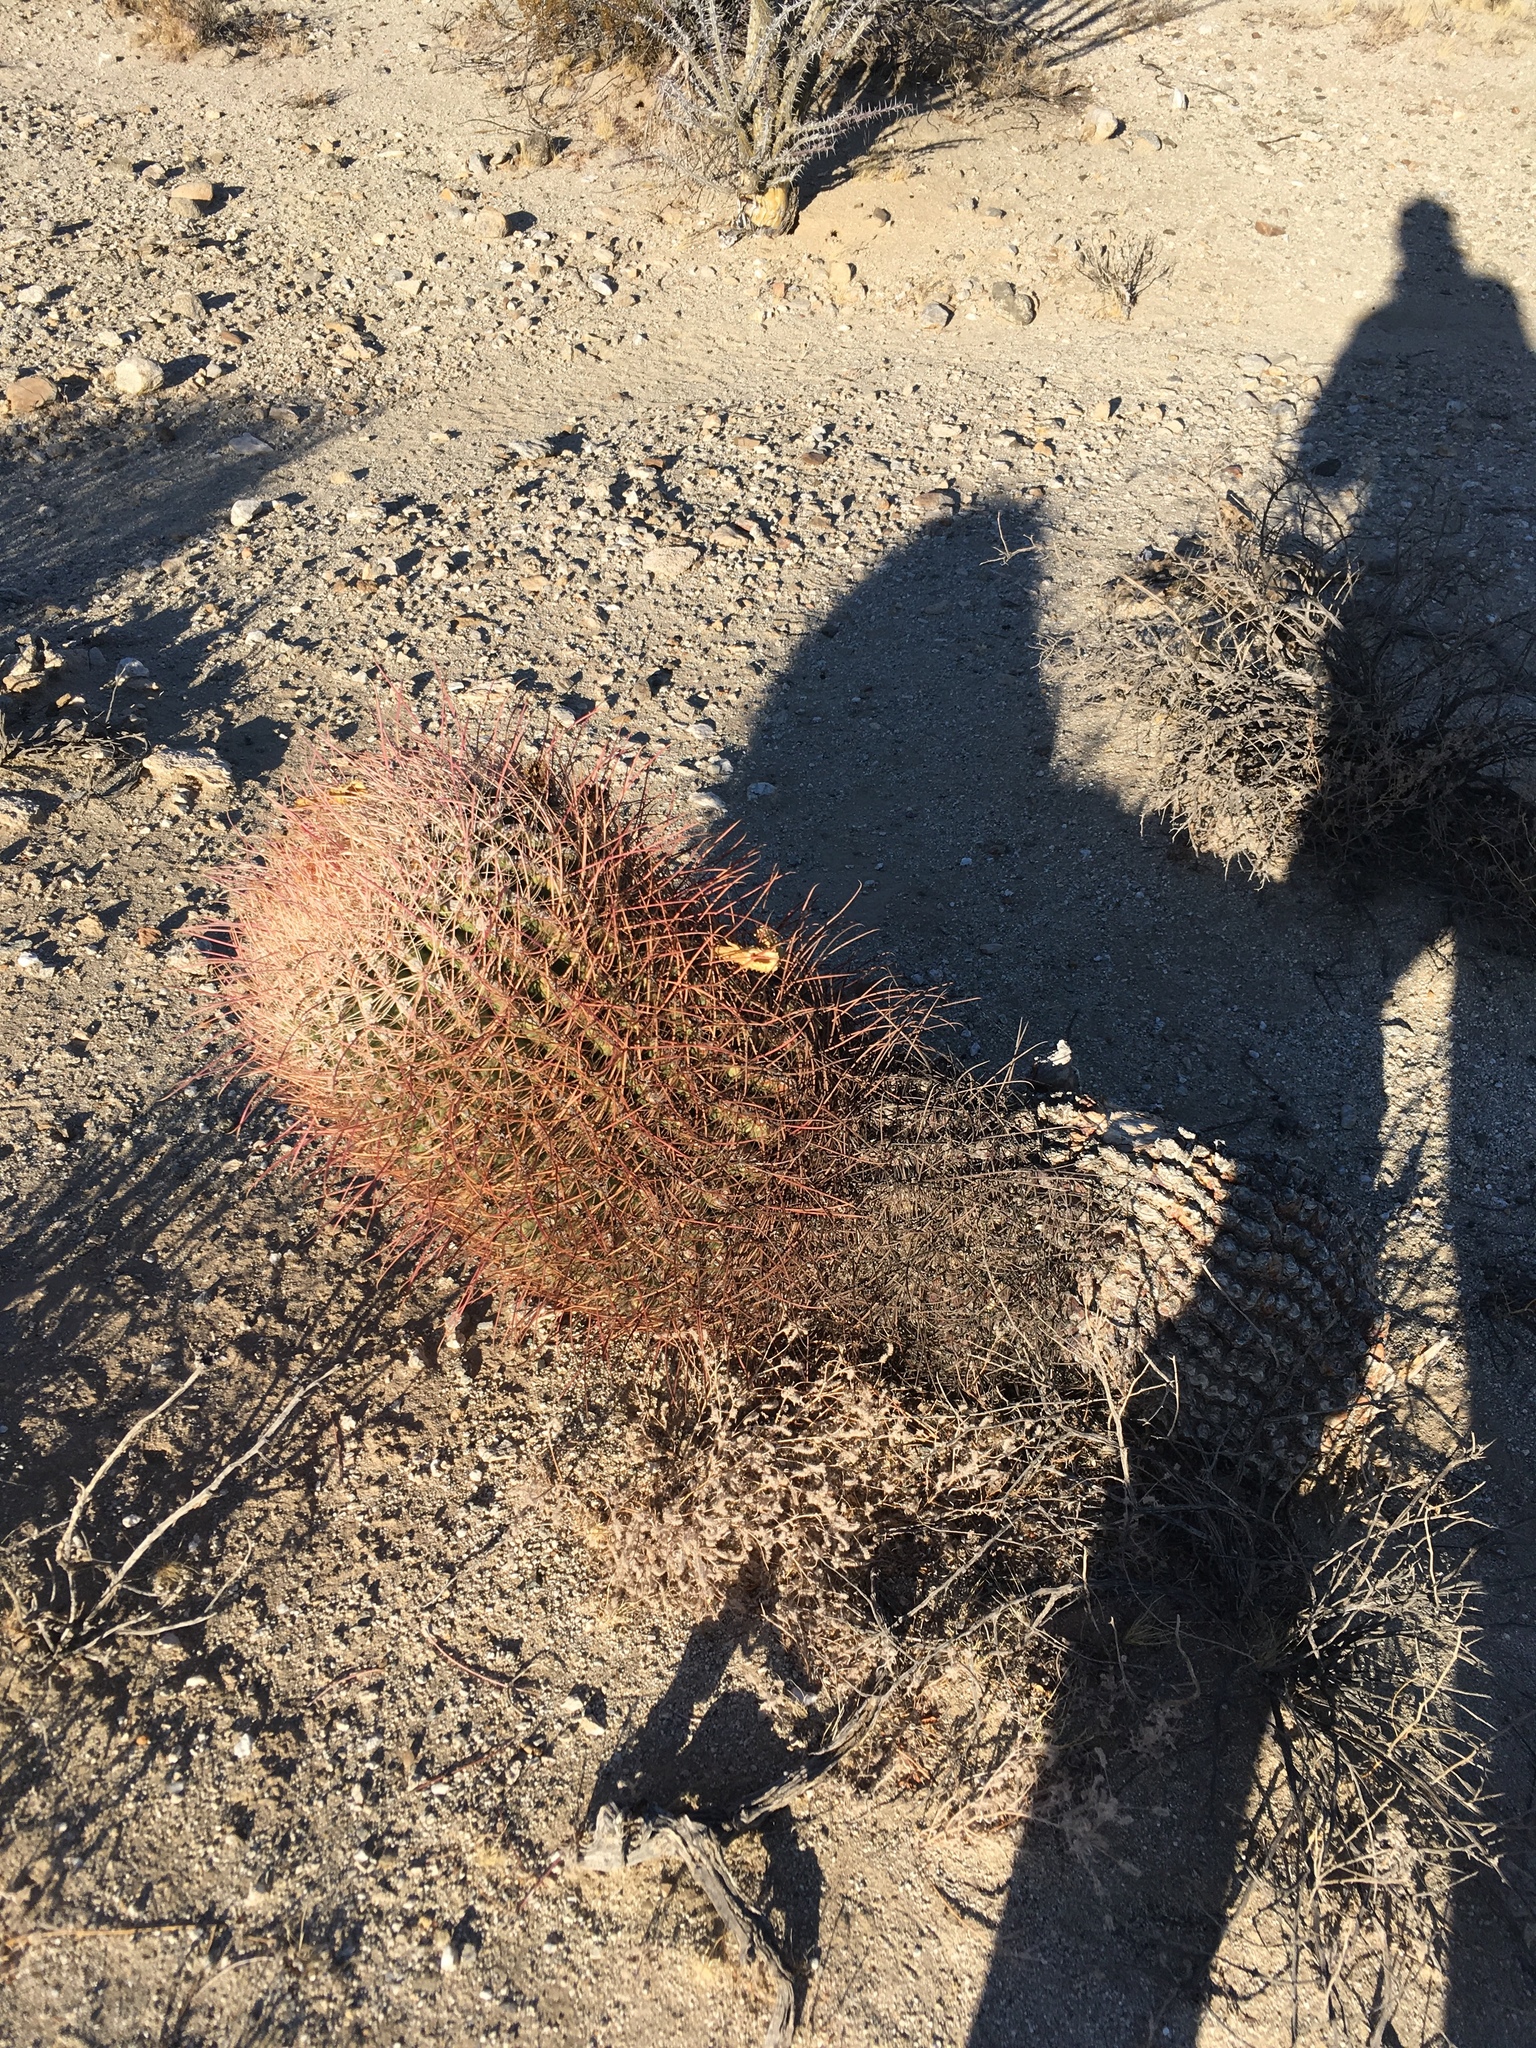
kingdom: Plantae
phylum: Tracheophyta
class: Magnoliopsida
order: Caryophyllales
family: Cactaceae
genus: Ferocactus
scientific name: Ferocactus cylindraceus
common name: California barrel cactus
